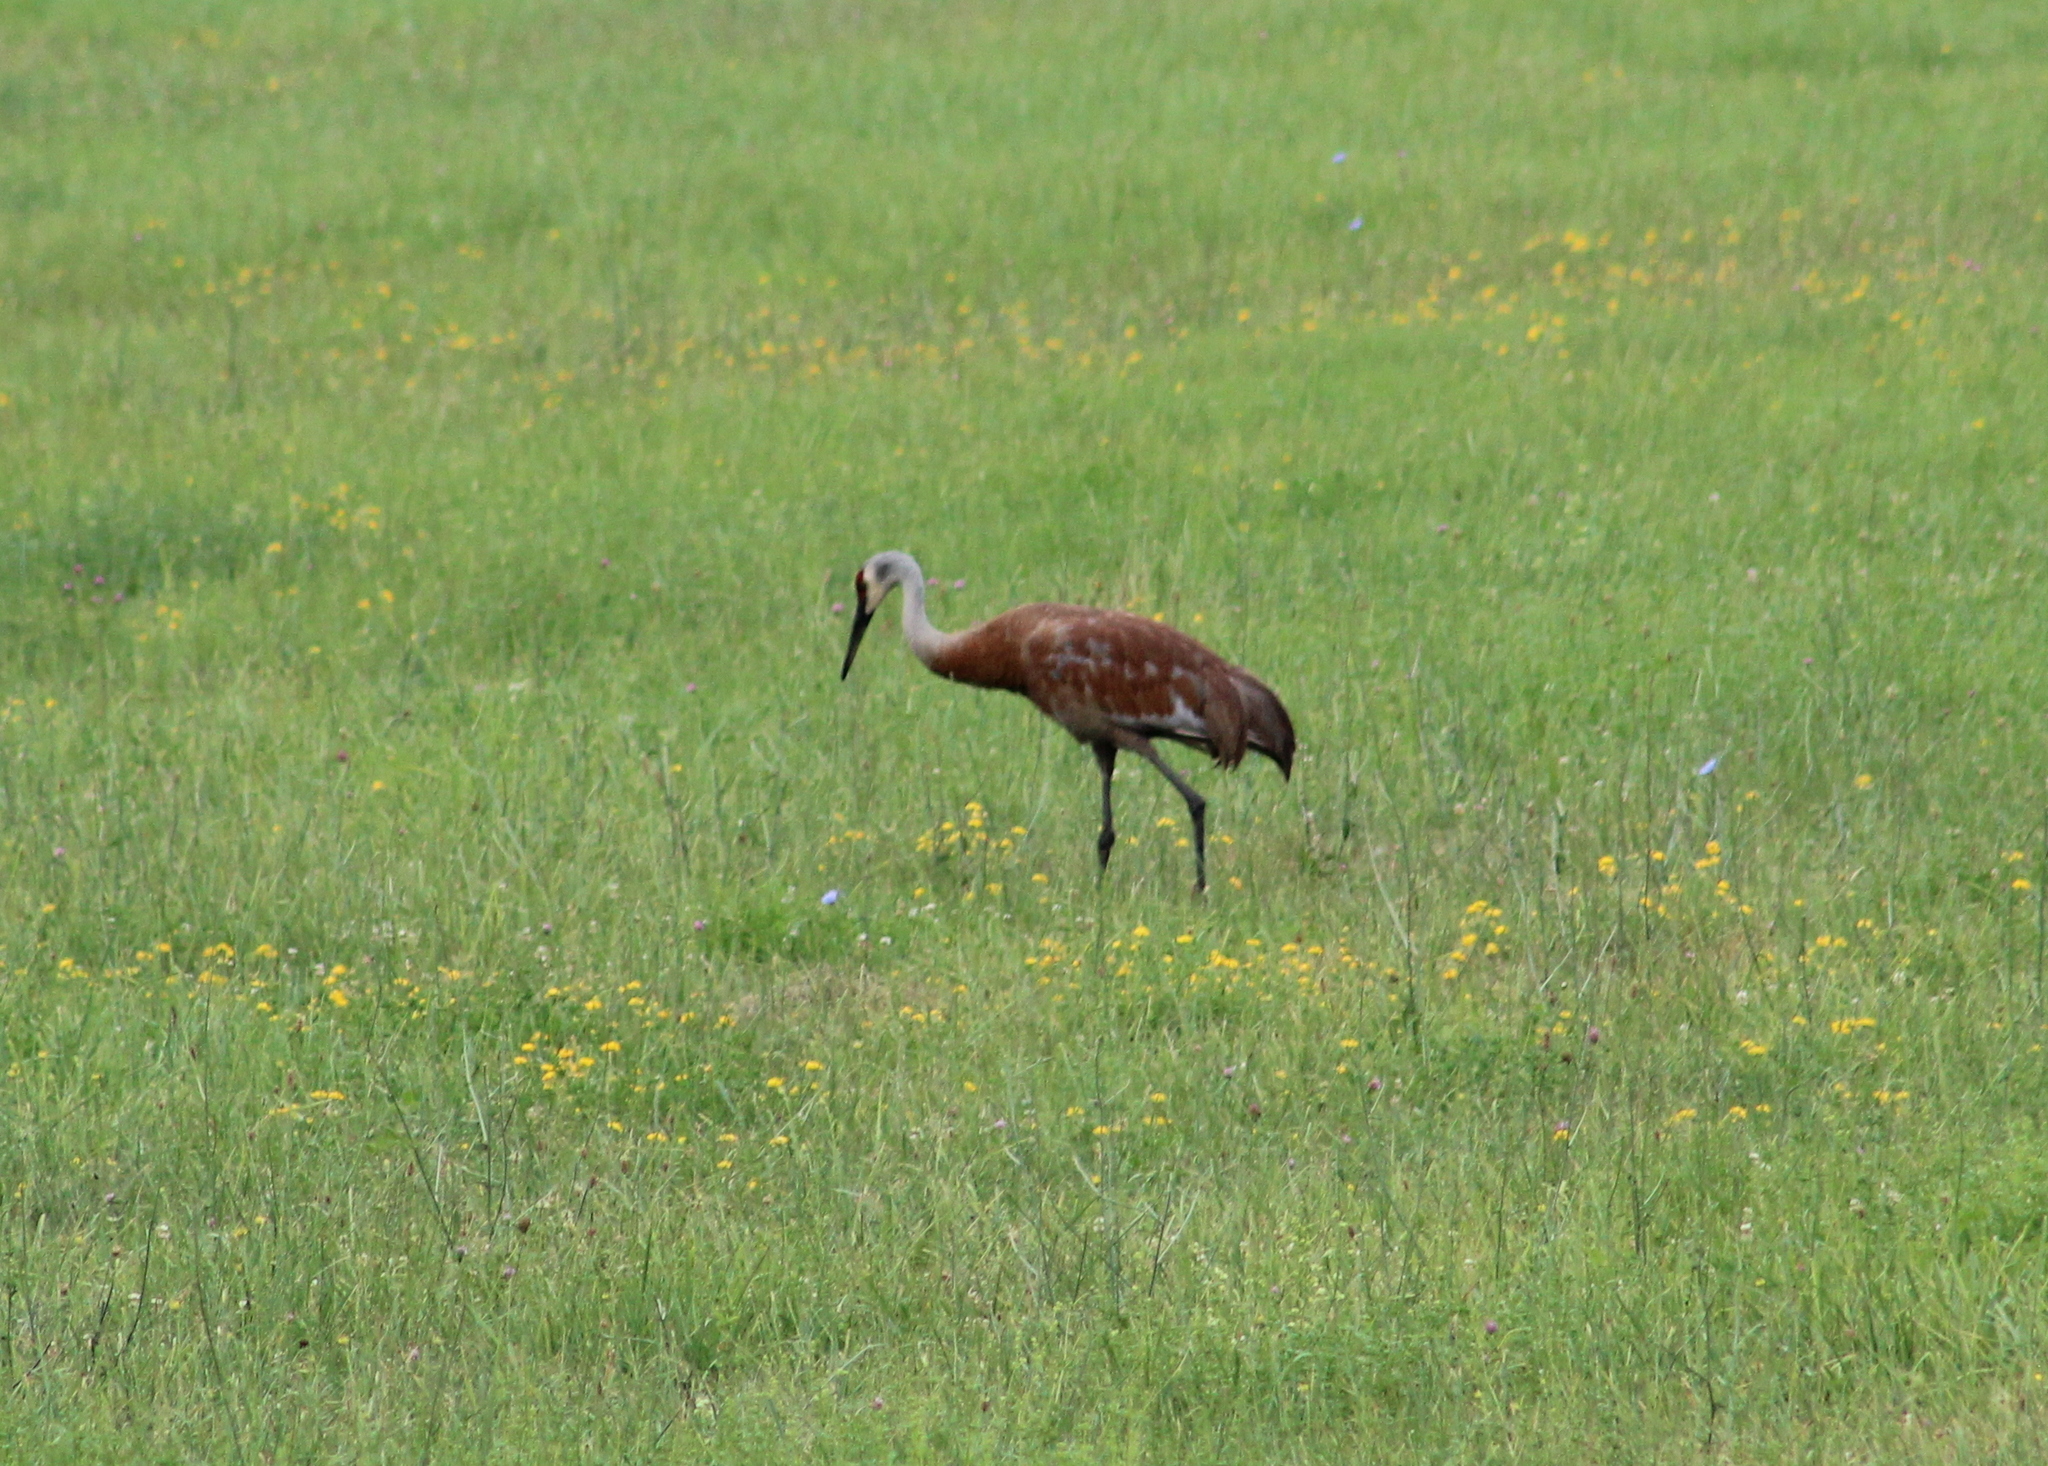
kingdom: Animalia
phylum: Chordata
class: Aves
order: Gruiformes
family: Gruidae
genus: Grus
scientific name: Grus canadensis
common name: Sandhill crane
